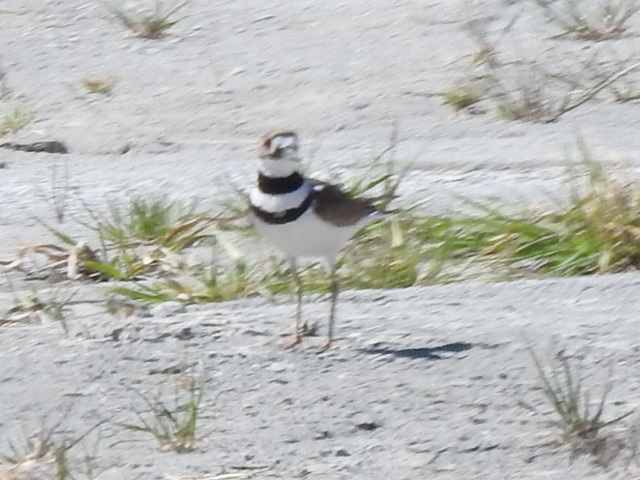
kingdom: Animalia
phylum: Chordata
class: Aves
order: Charadriiformes
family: Charadriidae
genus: Charadrius
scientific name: Charadrius vociferus
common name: Killdeer
